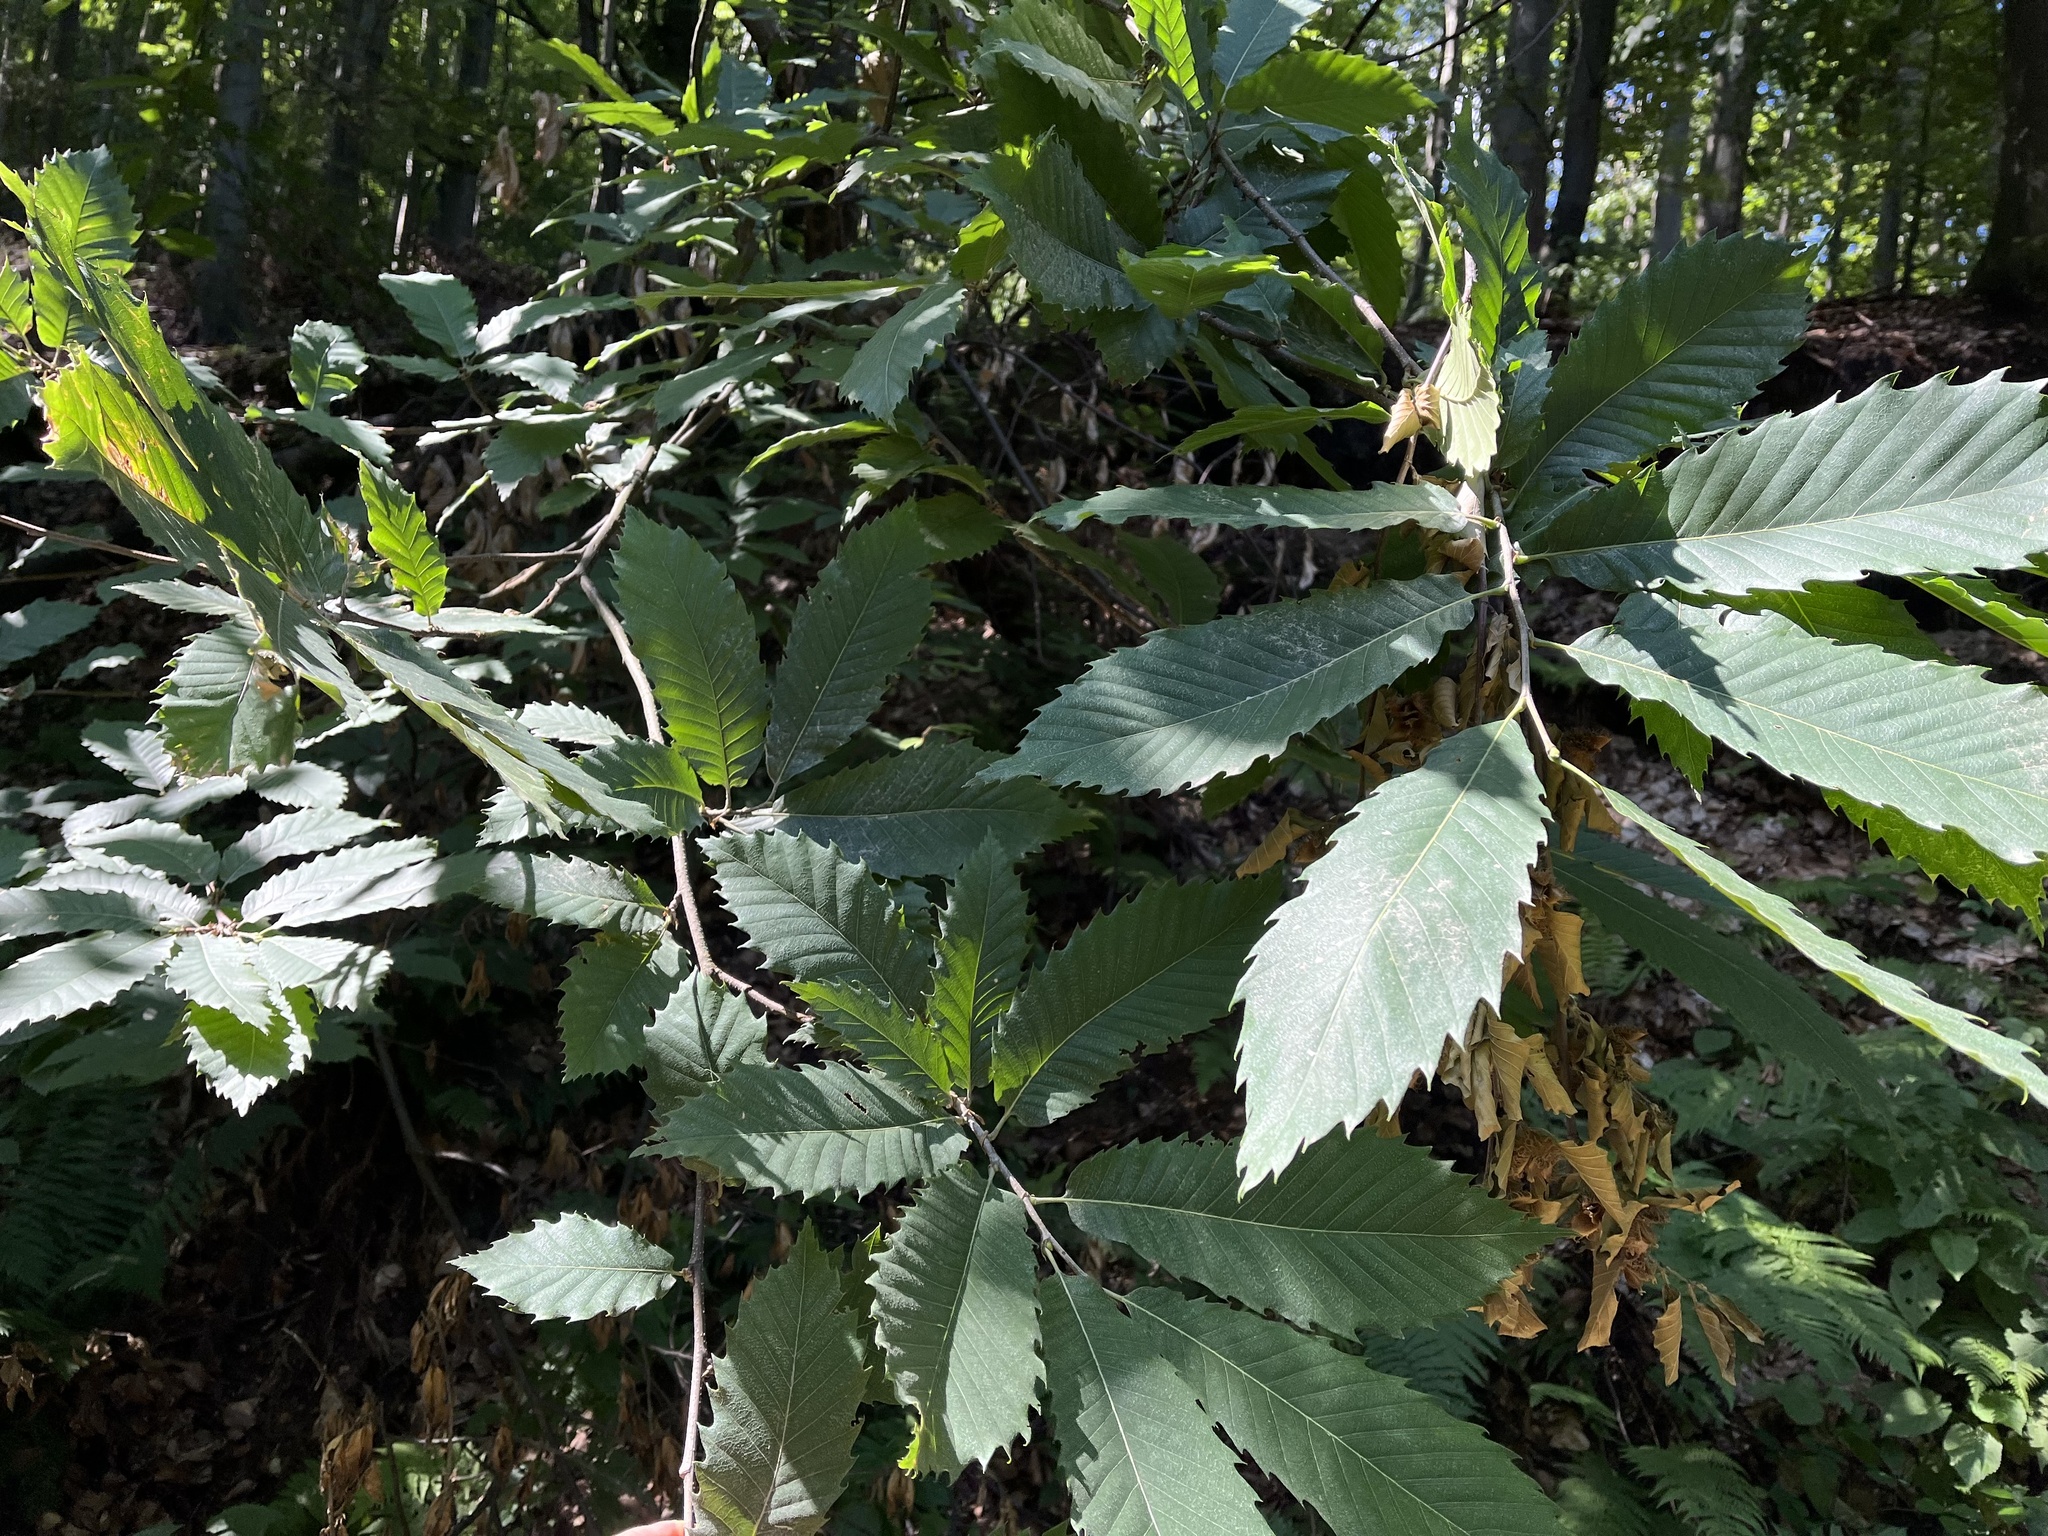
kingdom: Plantae
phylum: Tracheophyta
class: Magnoliopsida
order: Fagales
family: Fagaceae
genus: Castanea
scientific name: Castanea sativa
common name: Sweet chestnut
